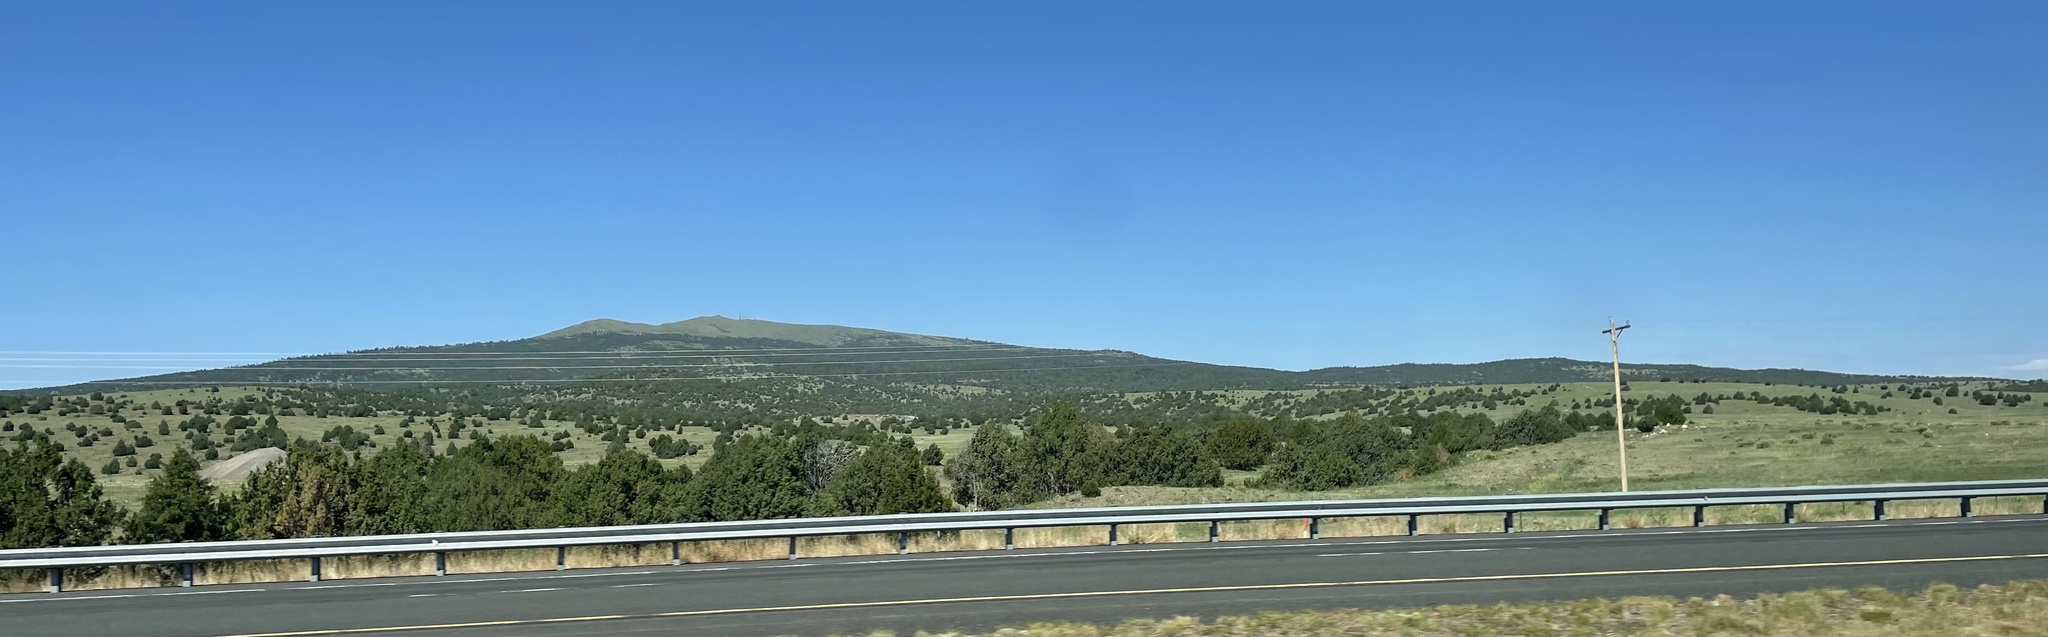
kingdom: Plantae
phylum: Tracheophyta
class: Pinopsida
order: Pinales
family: Cupressaceae
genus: Juniperus
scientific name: Juniperus
